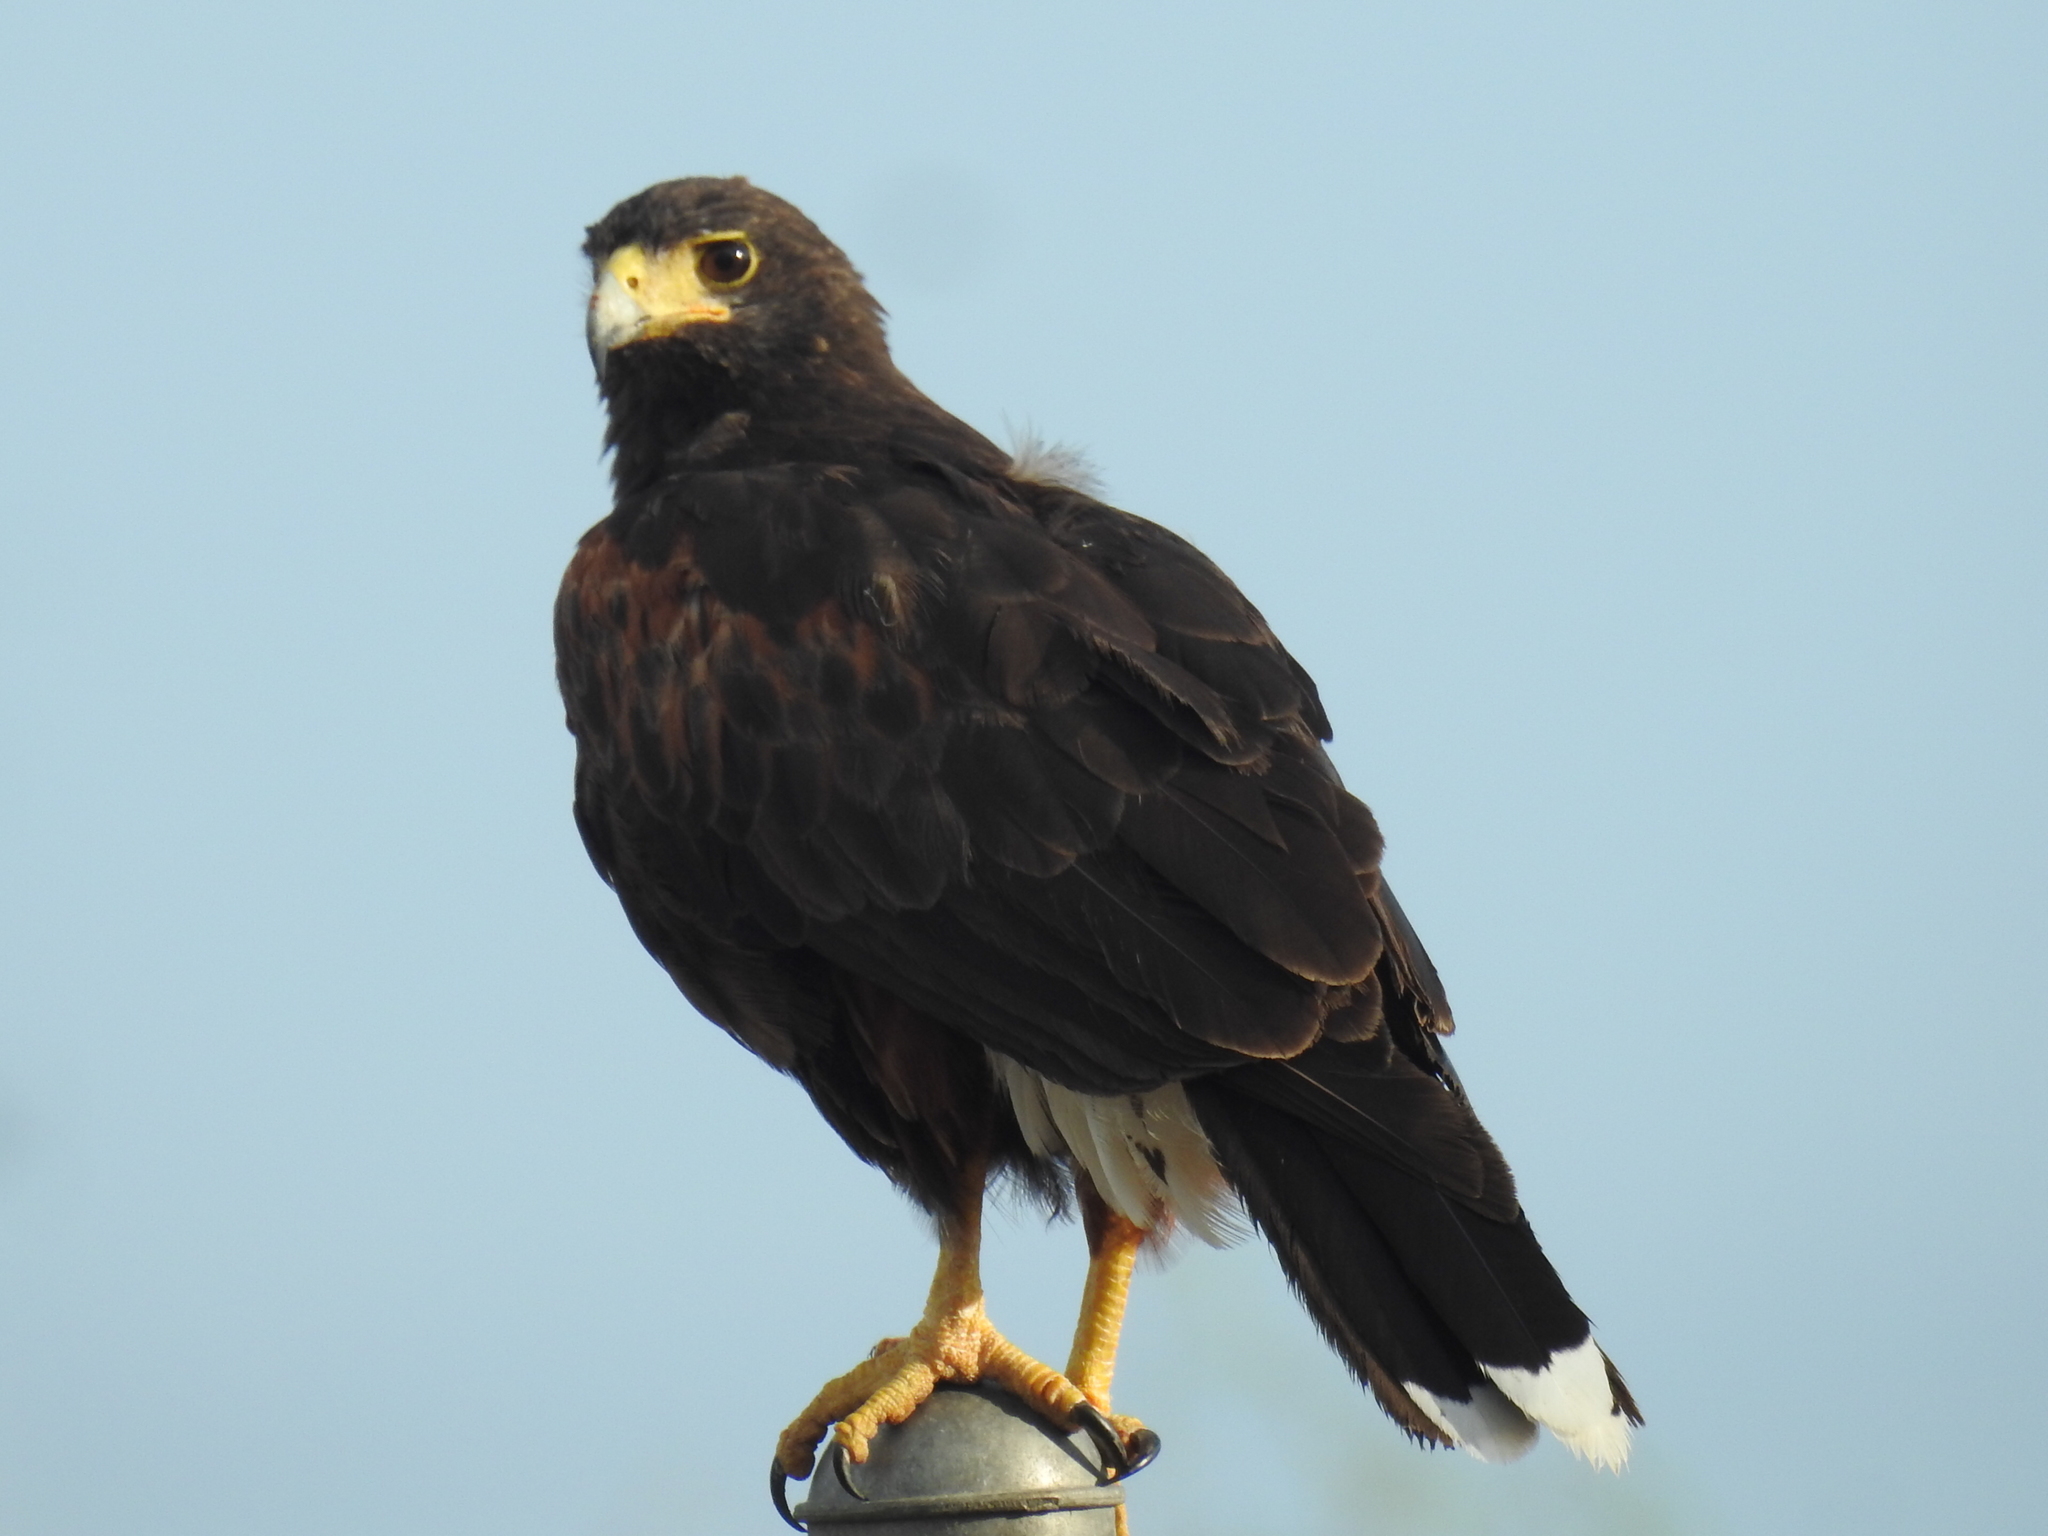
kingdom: Animalia
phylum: Chordata
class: Aves
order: Accipitriformes
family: Accipitridae
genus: Parabuteo
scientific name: Parabuteo unicinctus
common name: Harris's hawk
